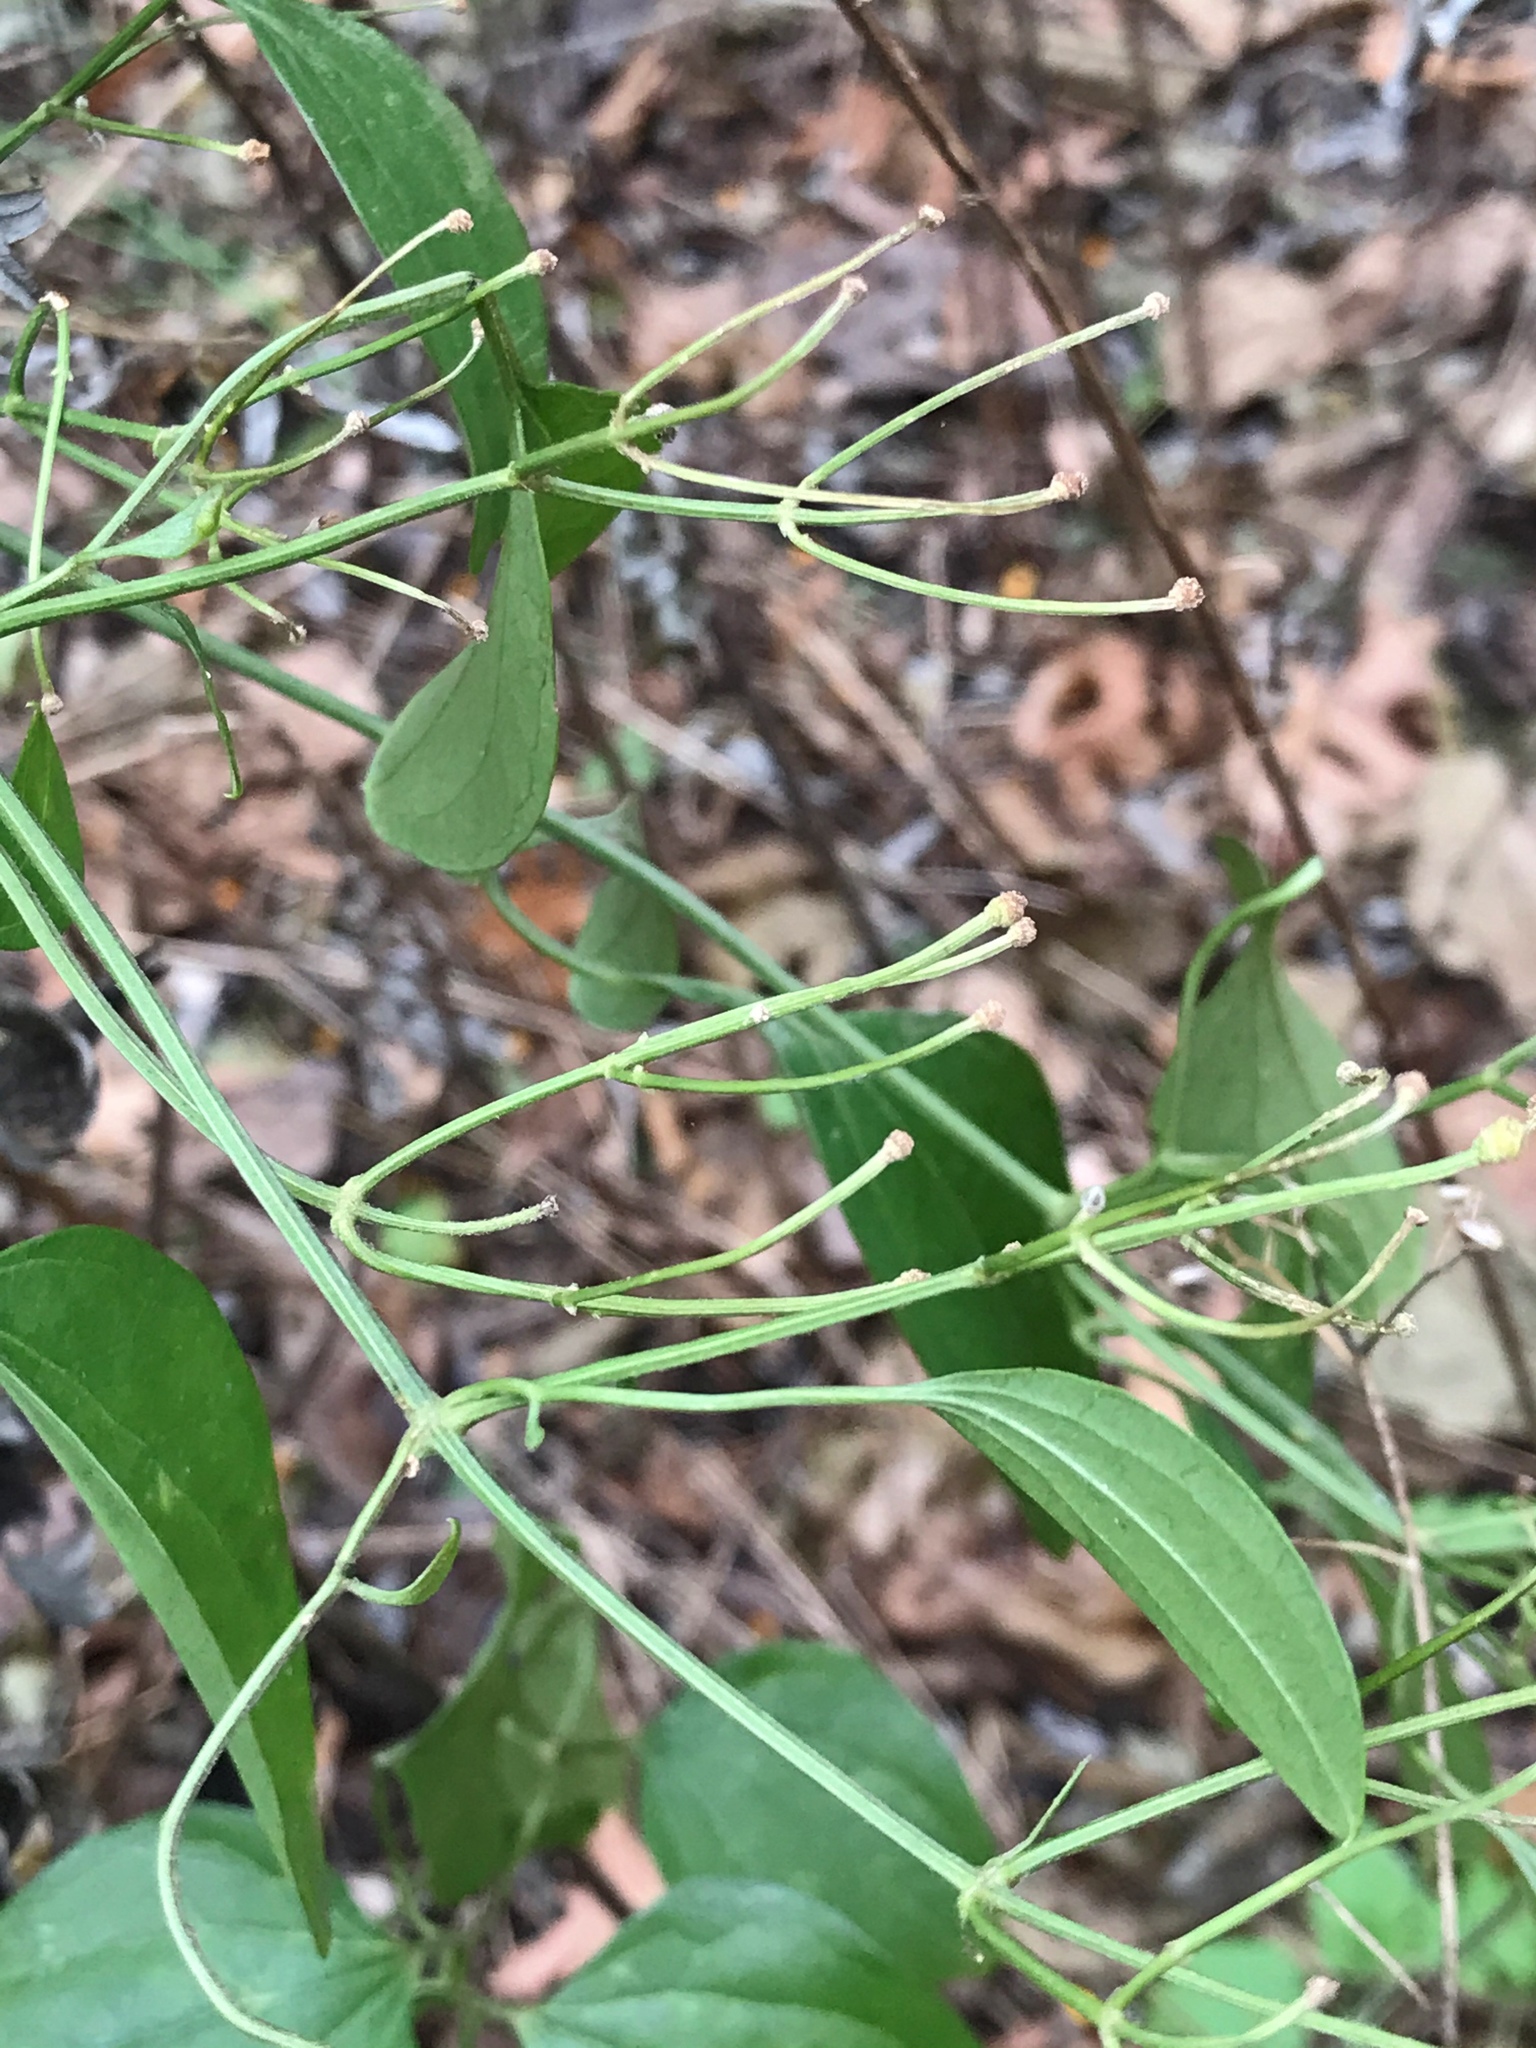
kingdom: Plantae
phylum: Tracheophyta
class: Magnoliopsida
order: Ranunculales
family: Ranunculaceae
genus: Clematis
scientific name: Clematis terniflora
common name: Sweet autumn clematis
